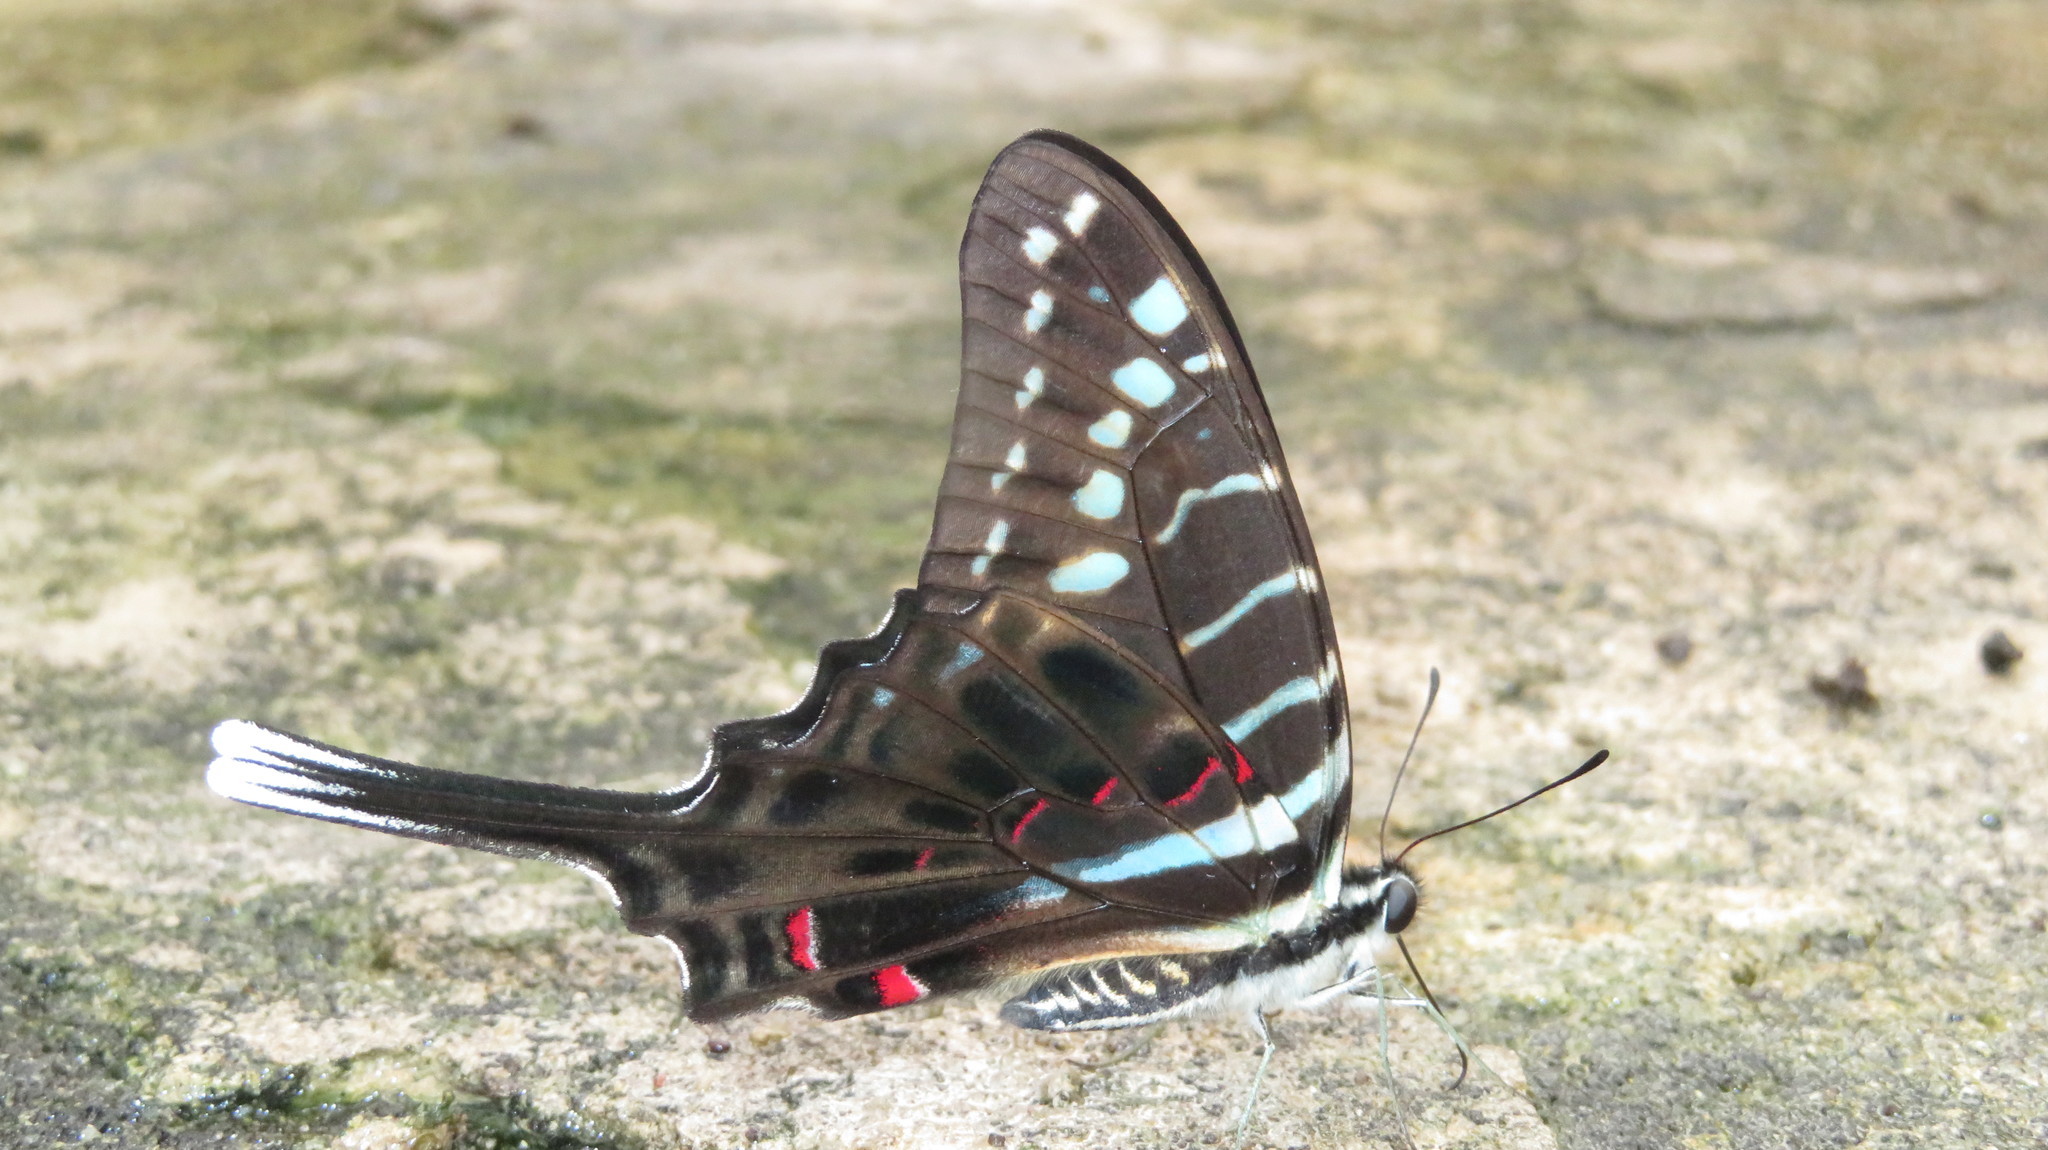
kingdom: Animalia
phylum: Arthropoda
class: Insecta
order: Lepidoptera
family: Papilionidae
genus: Graphium
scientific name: Graphium colonna
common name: Mamba swordtail
